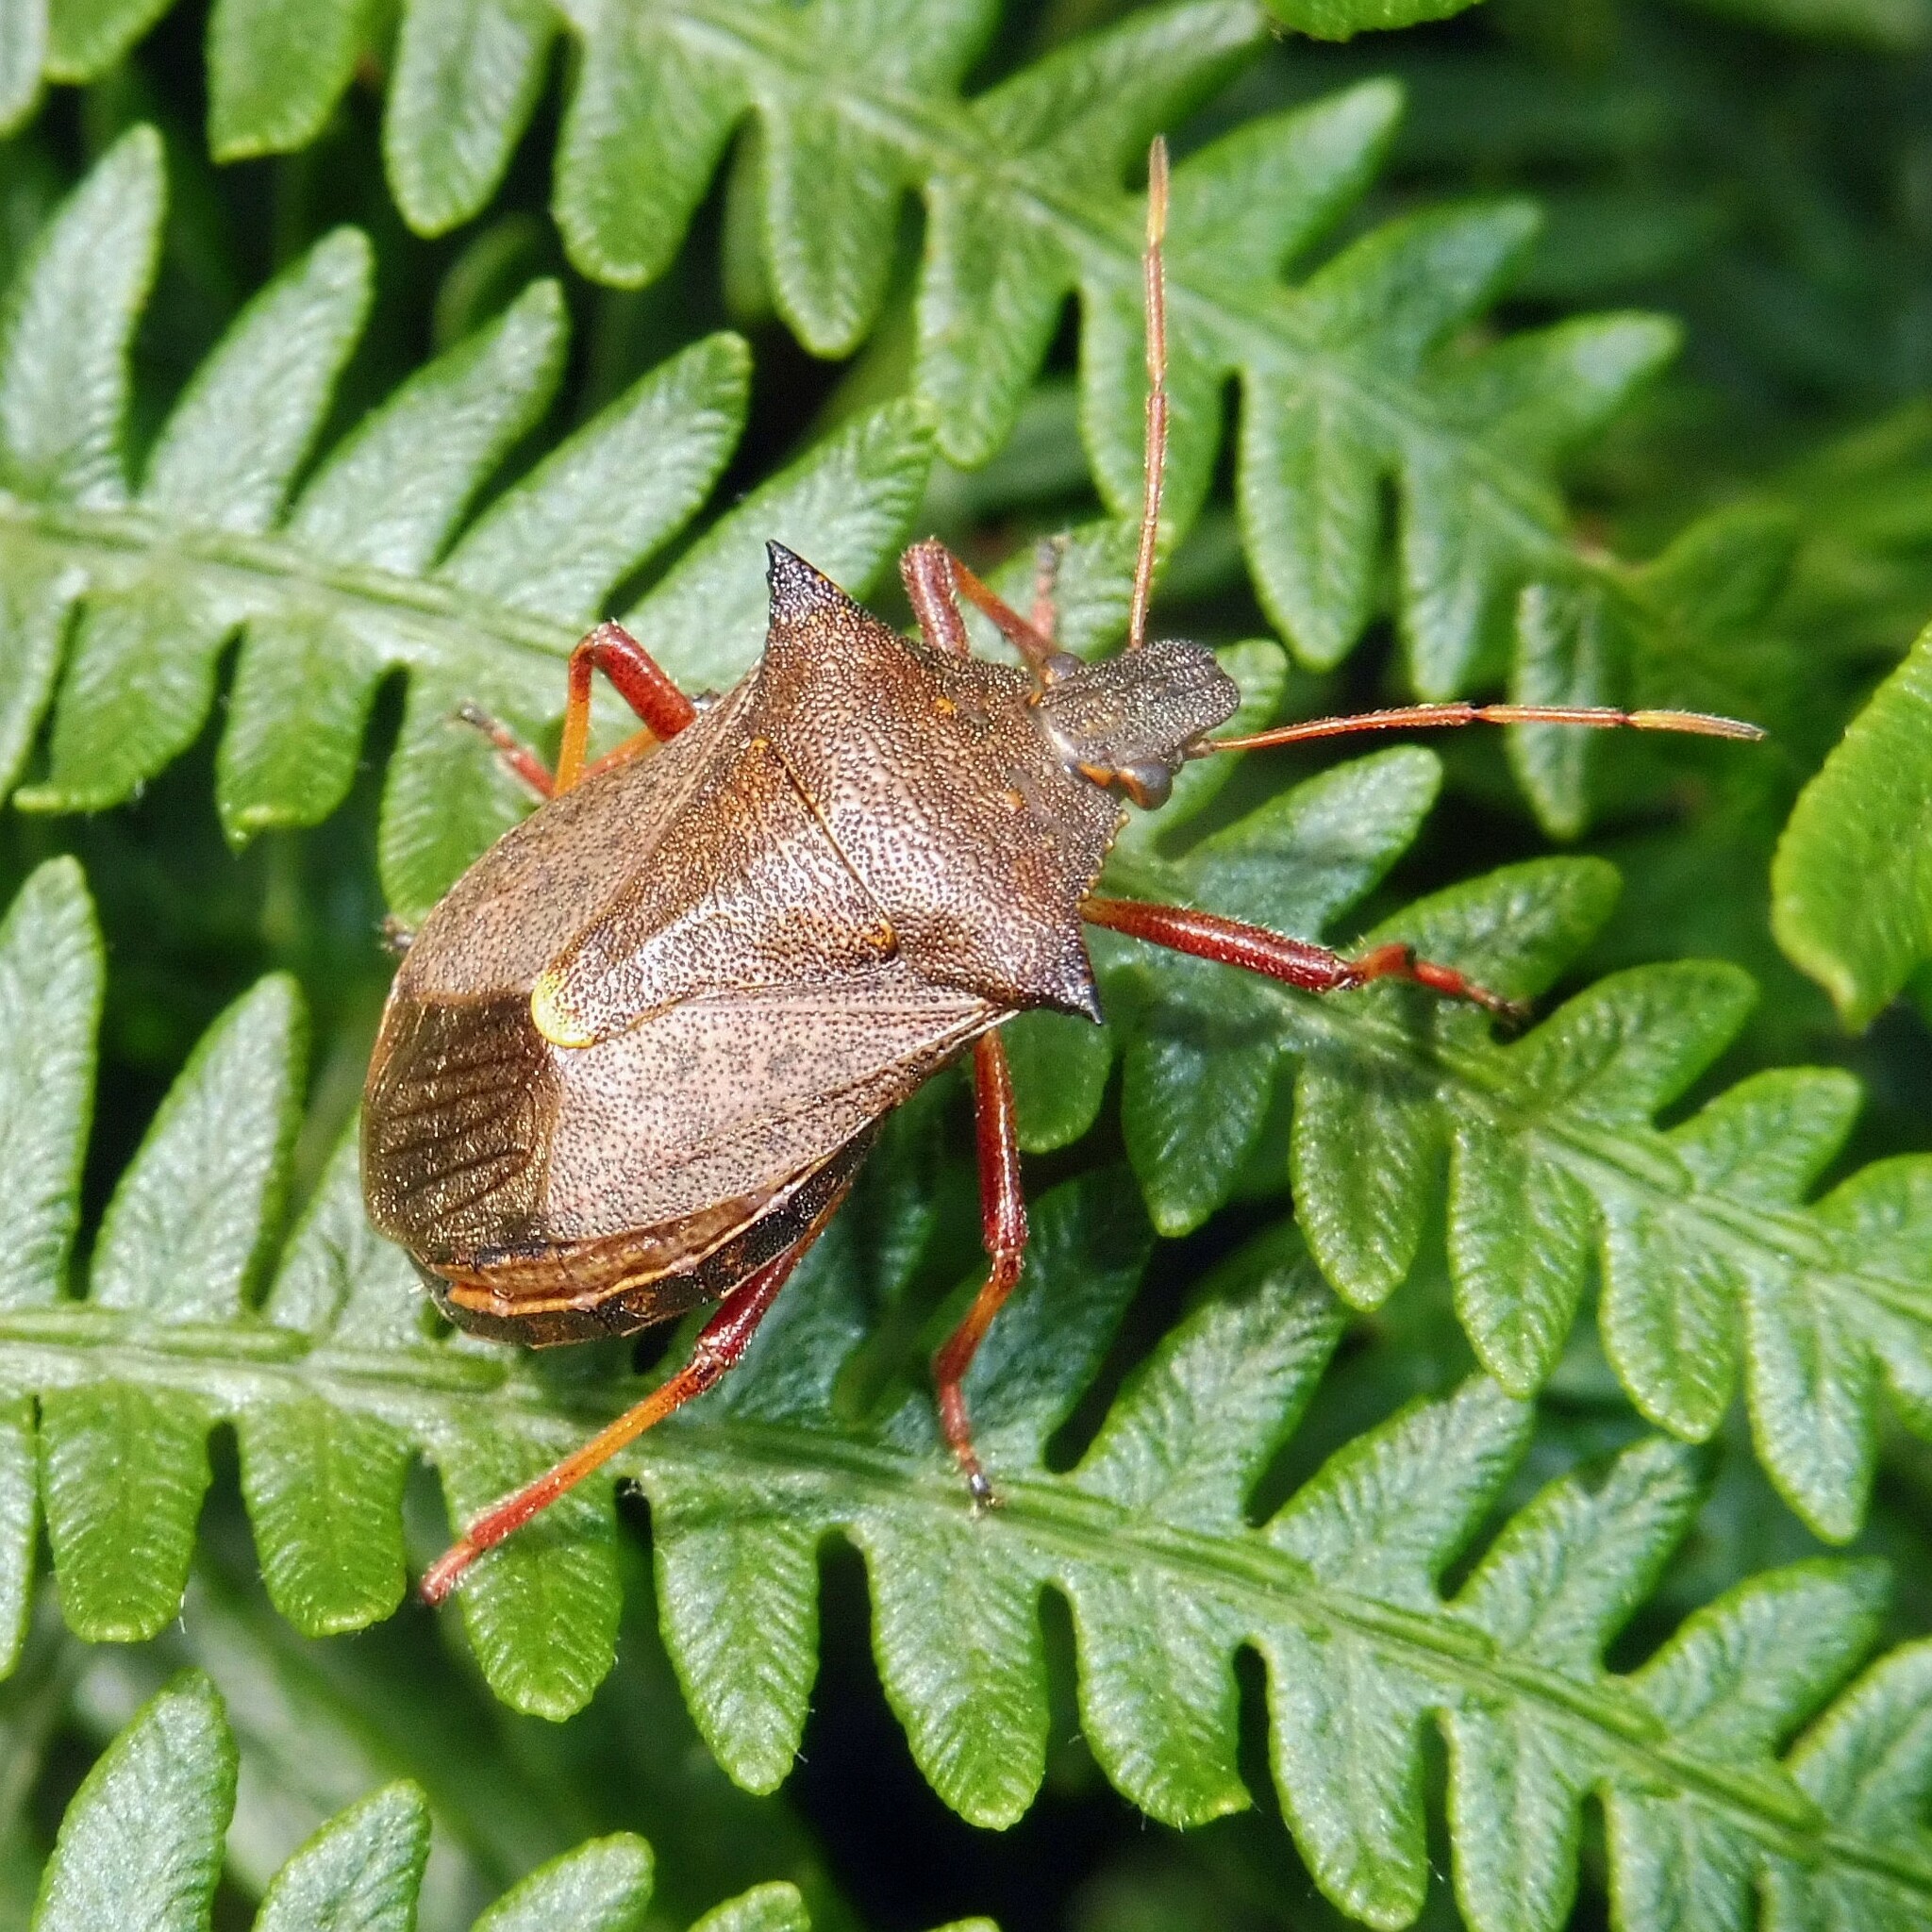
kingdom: Animalia
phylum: Arthropoda
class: Insecta
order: Hemiptera
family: Pentatomidae
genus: Picromerus
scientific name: Picromerus bidens
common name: Spiked shieldbug
